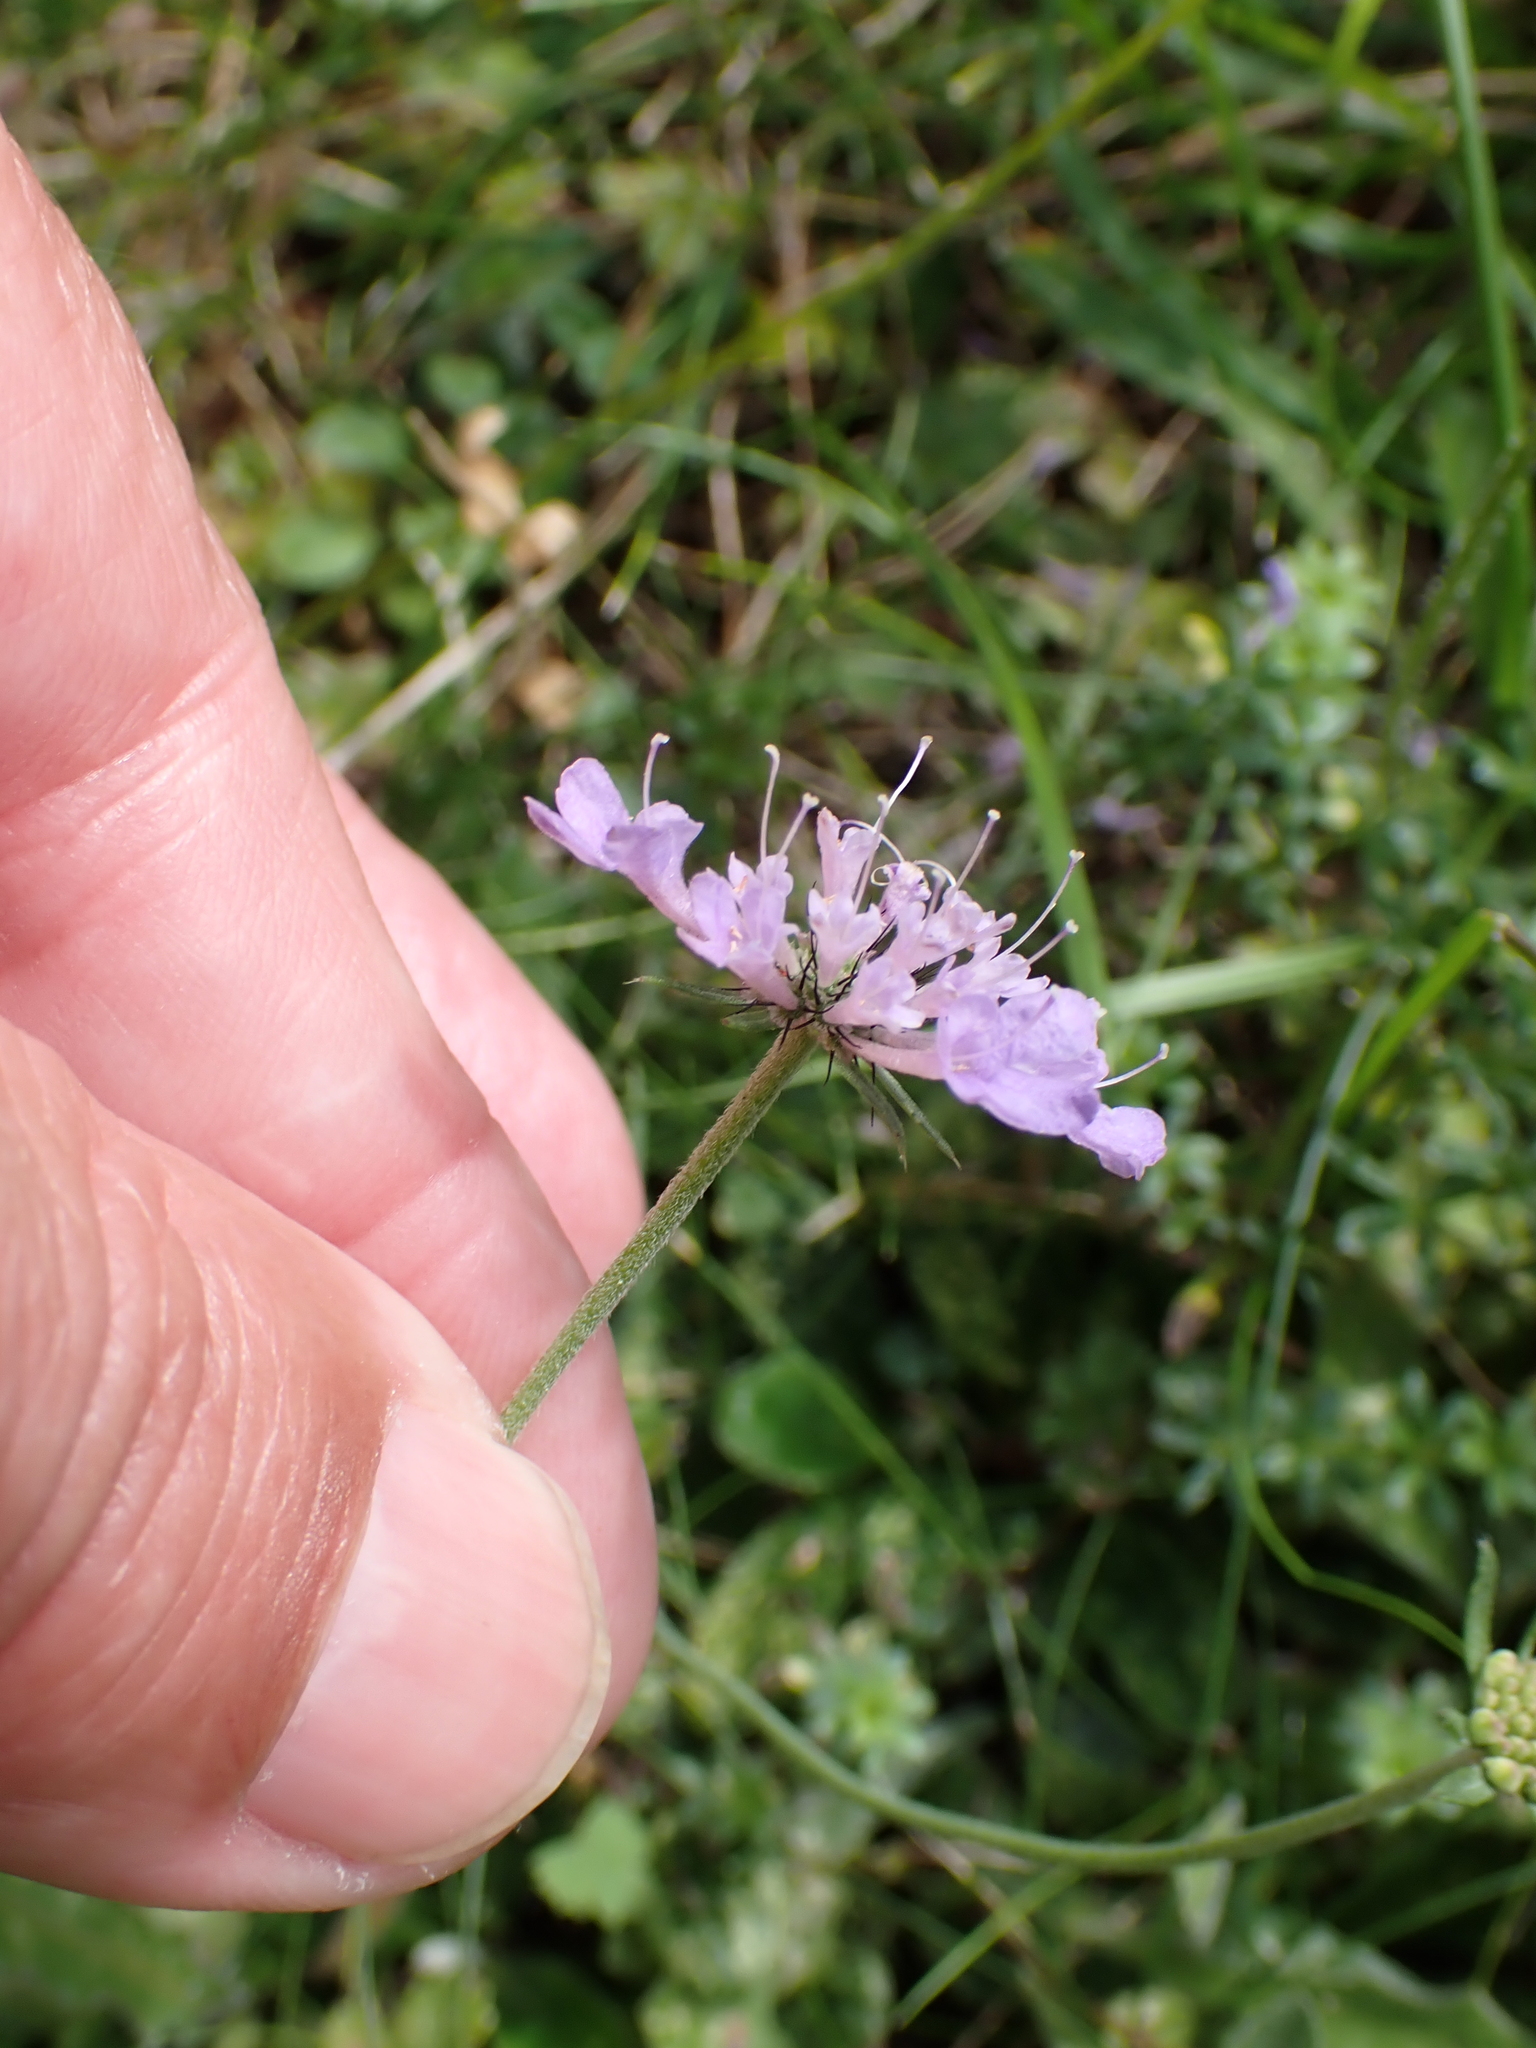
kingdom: Plantae
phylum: Tracheophyta
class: Magnoliopsida
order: Dipsacales
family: Caprifoliaceae
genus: Scabiosa
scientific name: Scabiosa columbaria
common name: Small scabious
